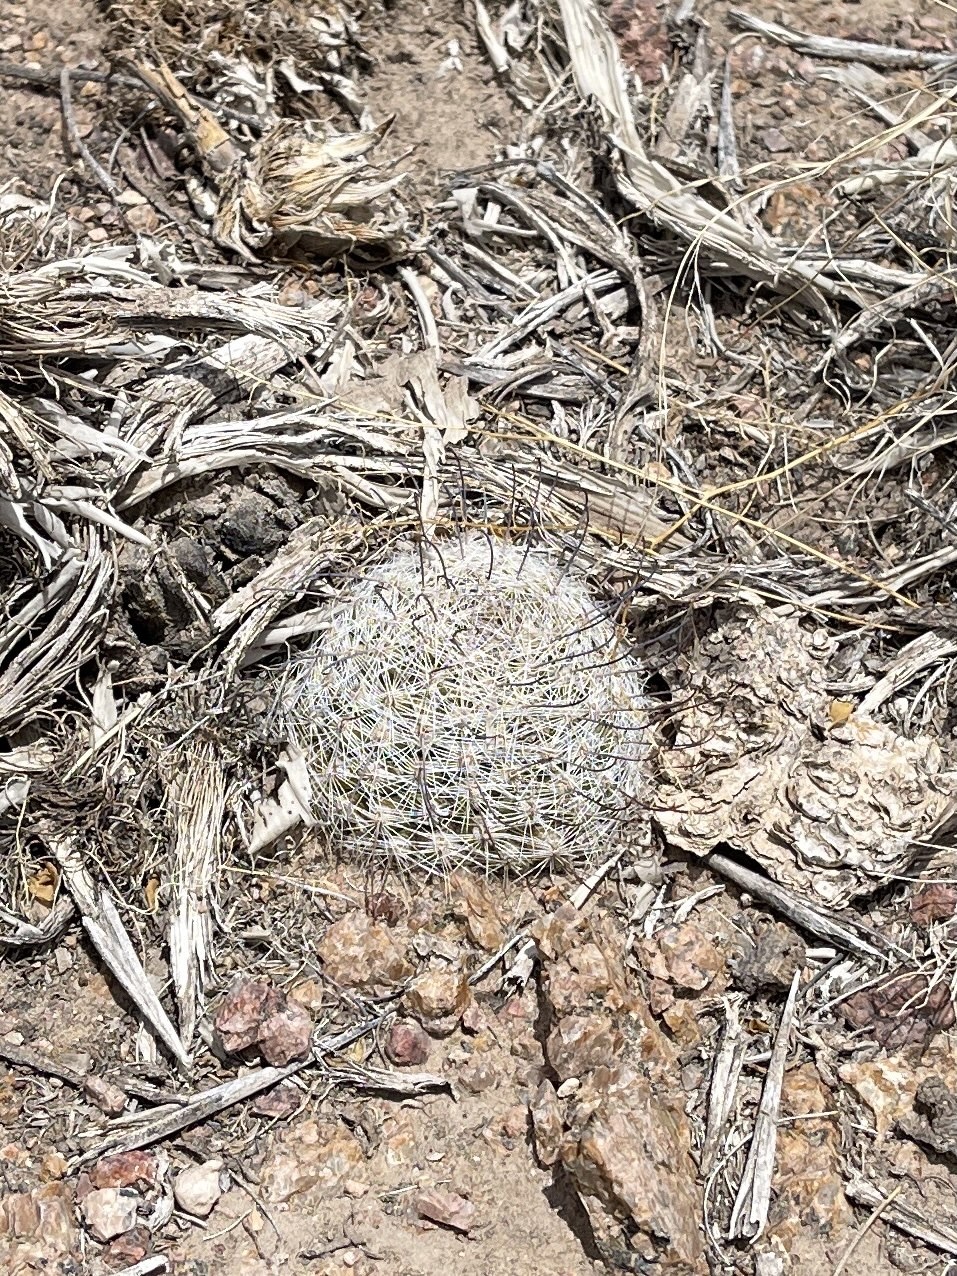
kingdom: Plantae
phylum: Tracheophyta
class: Magnoliopsida
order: Caryophyllales
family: Cactaceae
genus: Cochemiea
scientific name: Cochemiea grahamii
